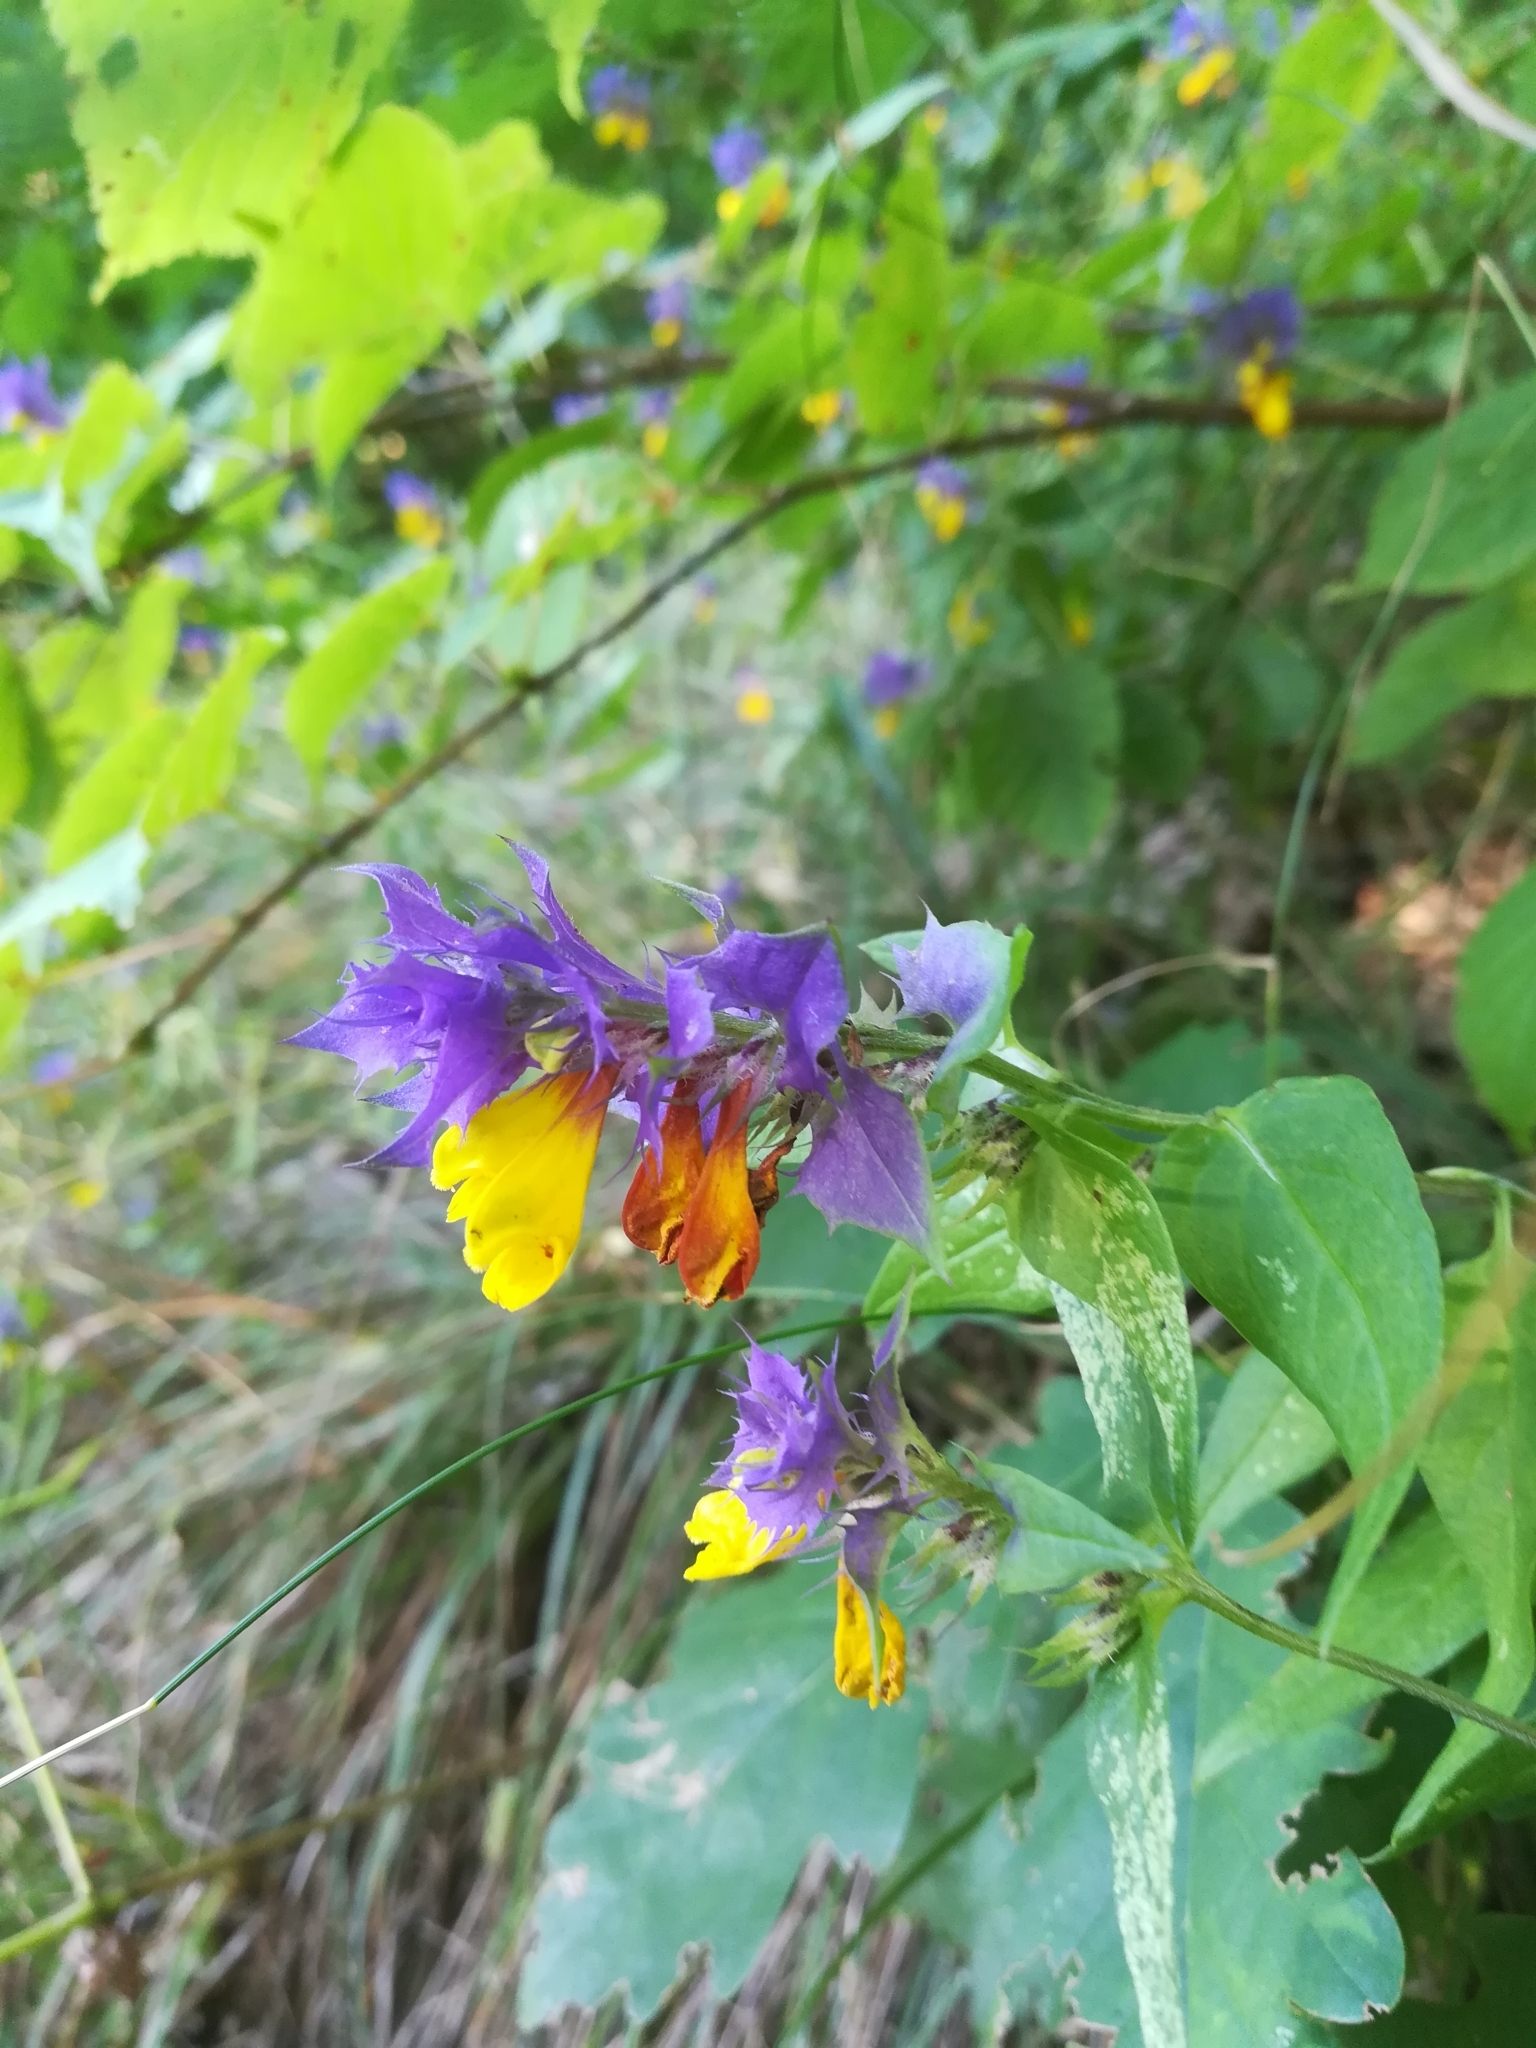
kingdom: Plantae
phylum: Tracheophyta
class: Magnoliopsida
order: Lamiales
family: Orobanchaceae
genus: Melampyrum
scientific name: Melampyrum nemorosum
